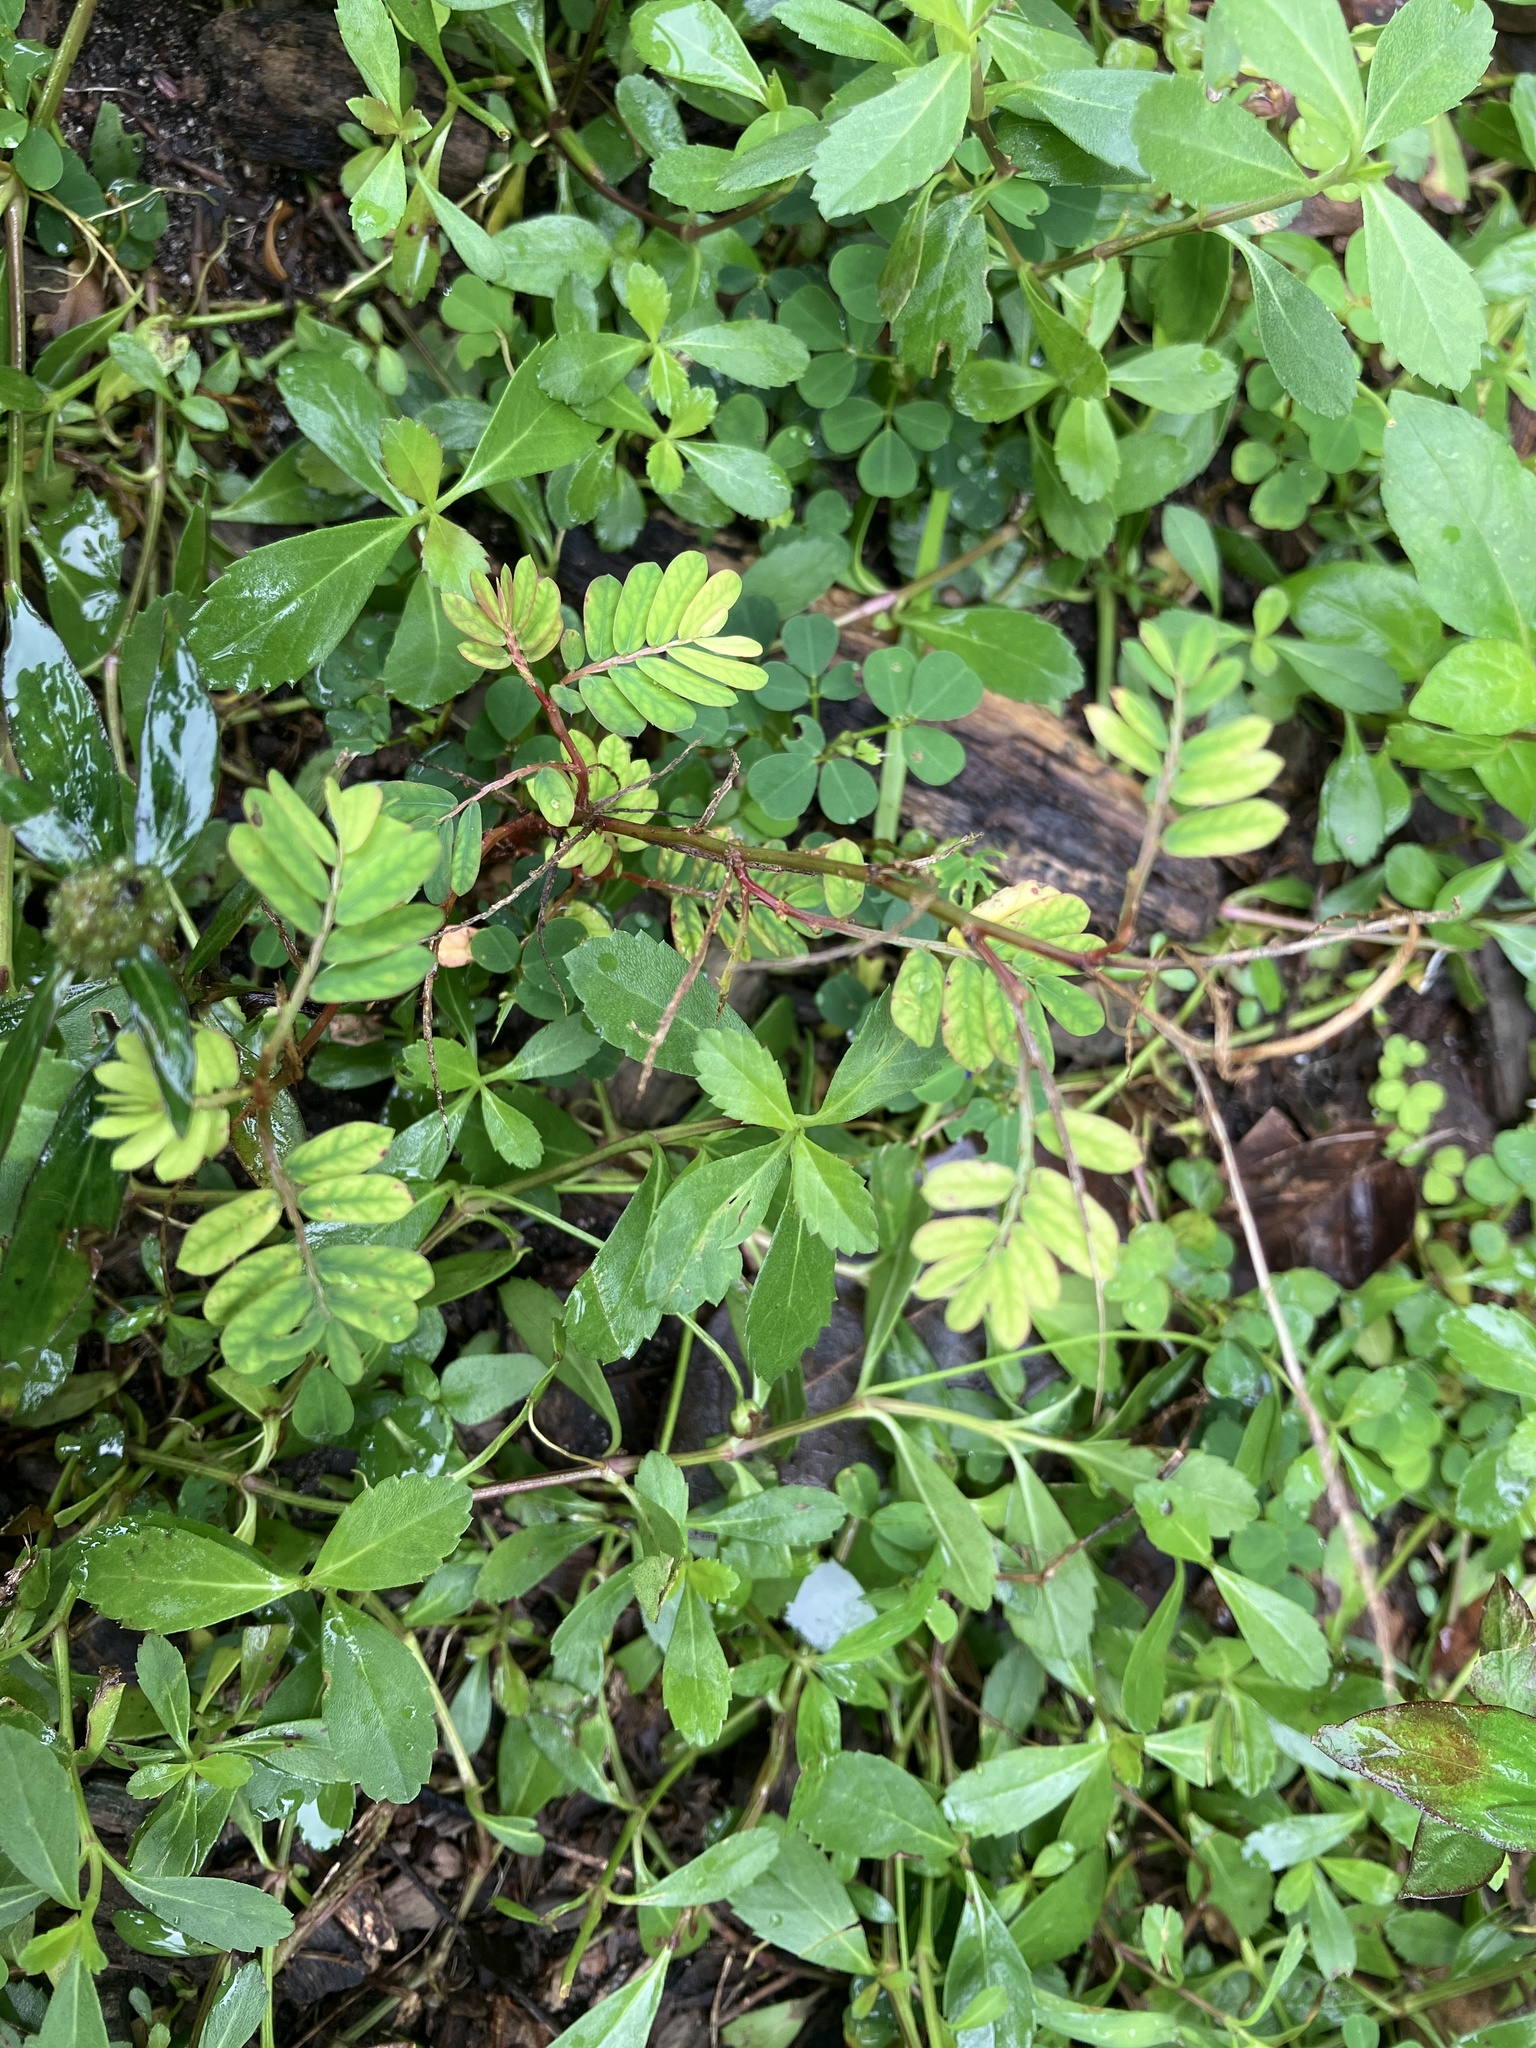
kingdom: Plantae
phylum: Tracheophyta
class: Magnoliopsida
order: Malpighiales
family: Phyllanthaceae
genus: Phyllanthus
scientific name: Phyllanthus urinaria
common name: Chamber bitter
